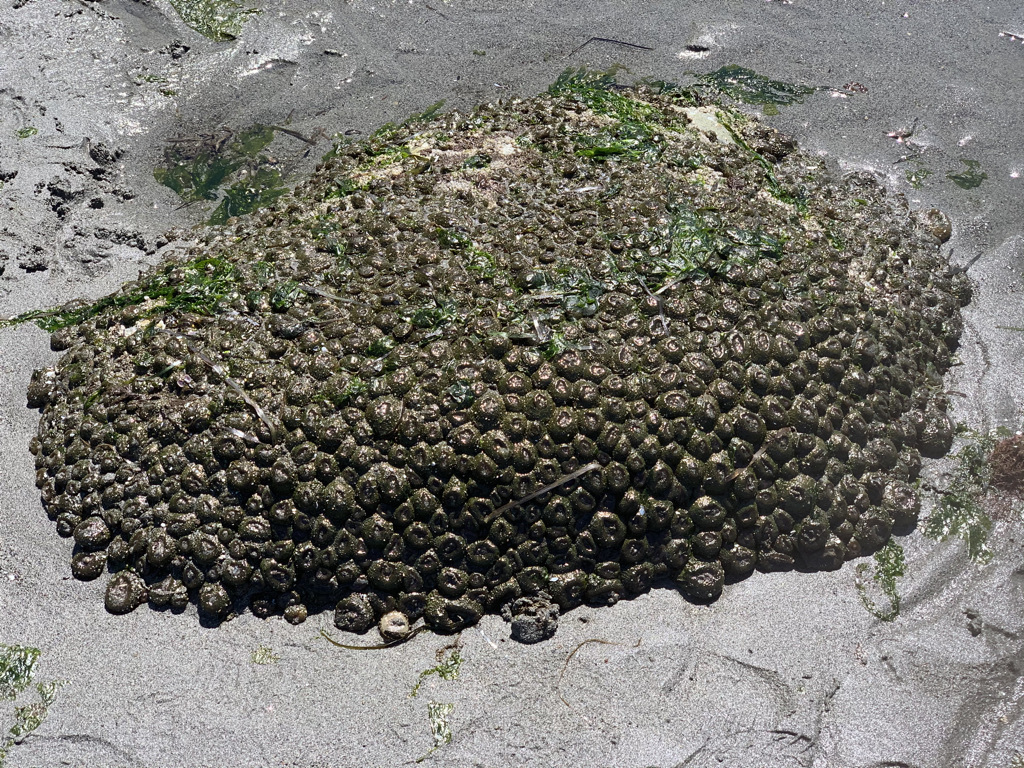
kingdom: Animalia
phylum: Cnidaria
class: Anthozoa
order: Actiniaria
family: Actiniidae
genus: Anthopleura
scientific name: Anthopleura elegantissima
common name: Clonal anemone
